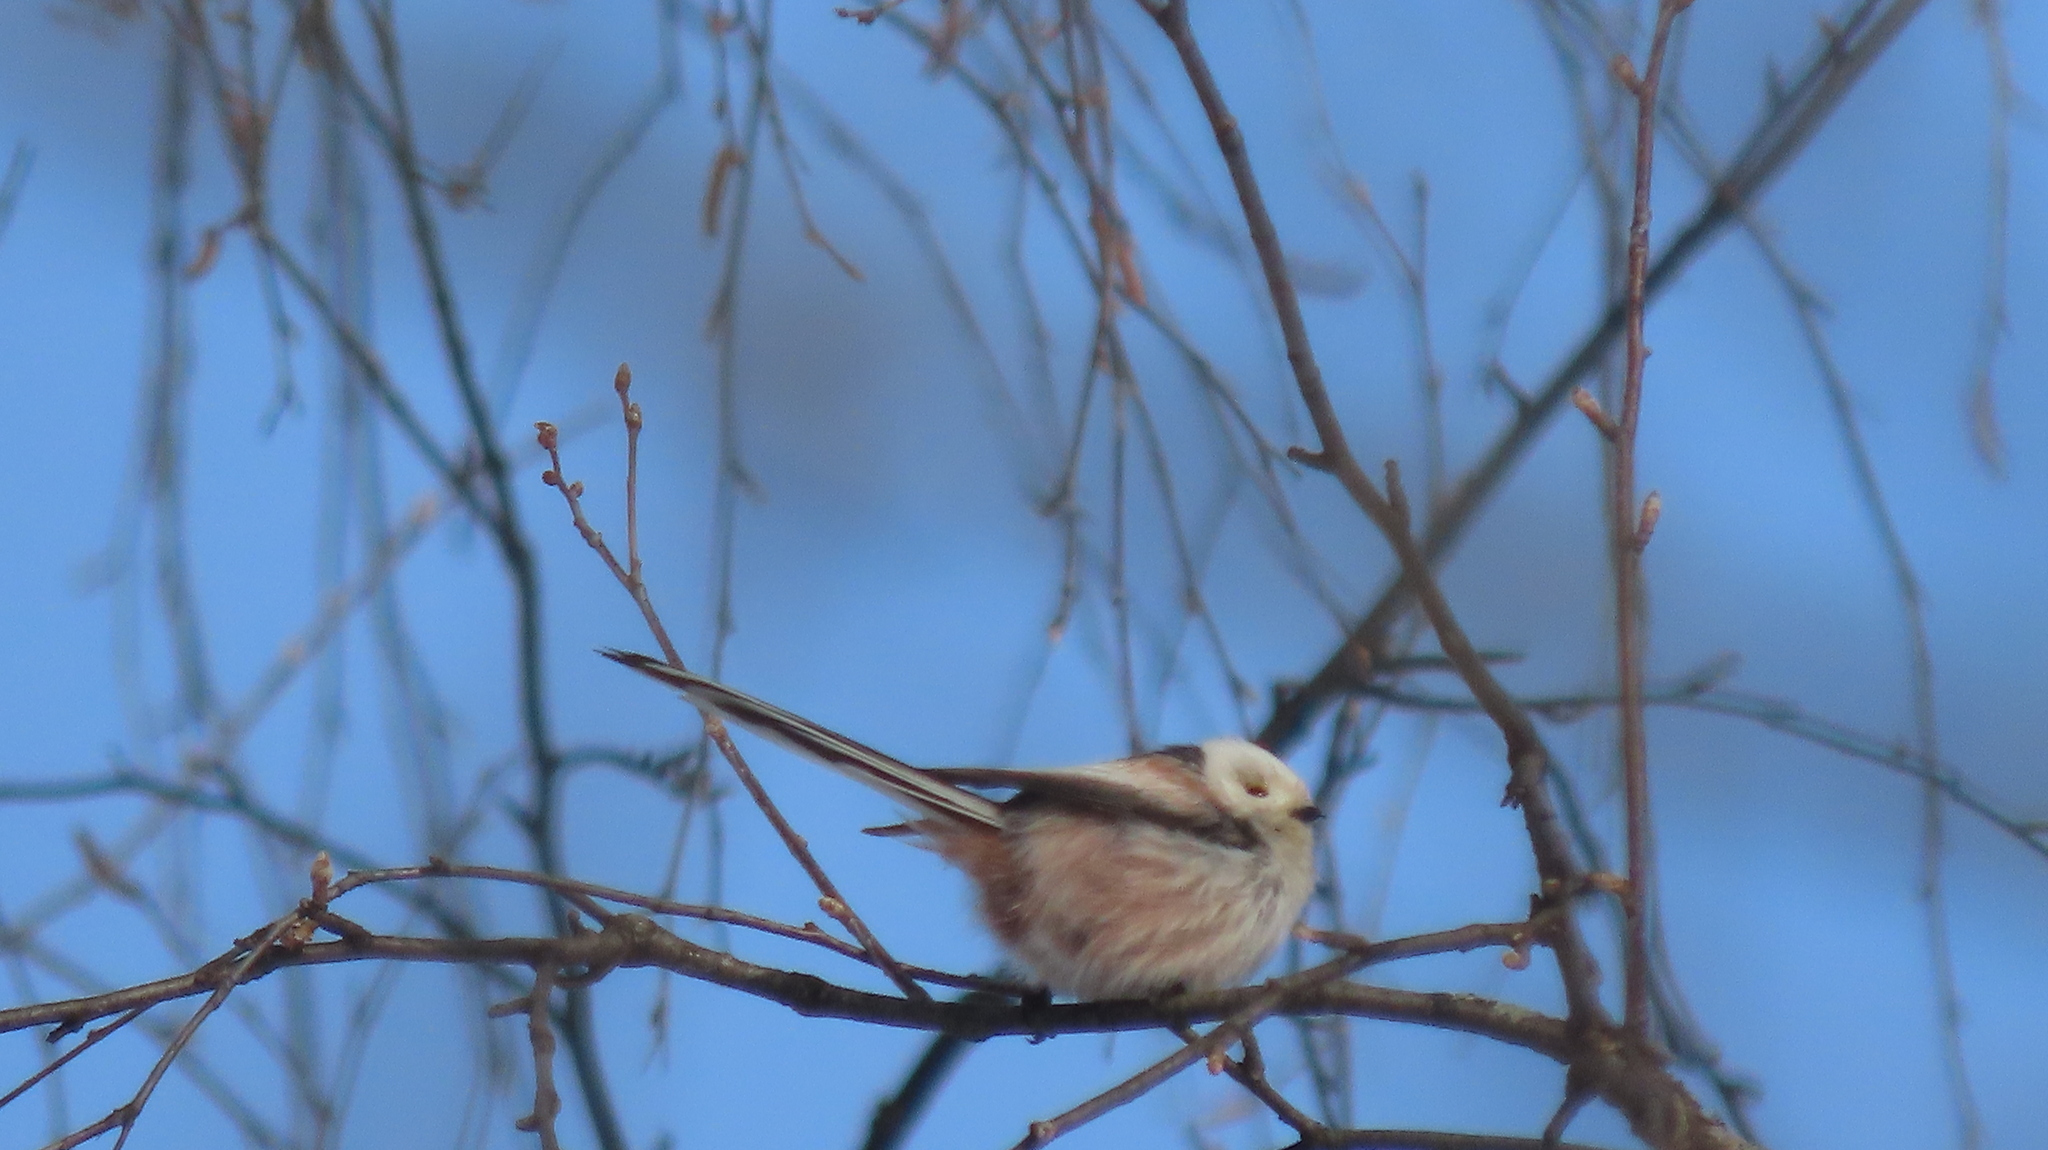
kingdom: Animalia
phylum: Chordata
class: Aves
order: Passeriformes
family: Aegithalidae
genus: Aegithalos
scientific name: Aegithalos caudatus
